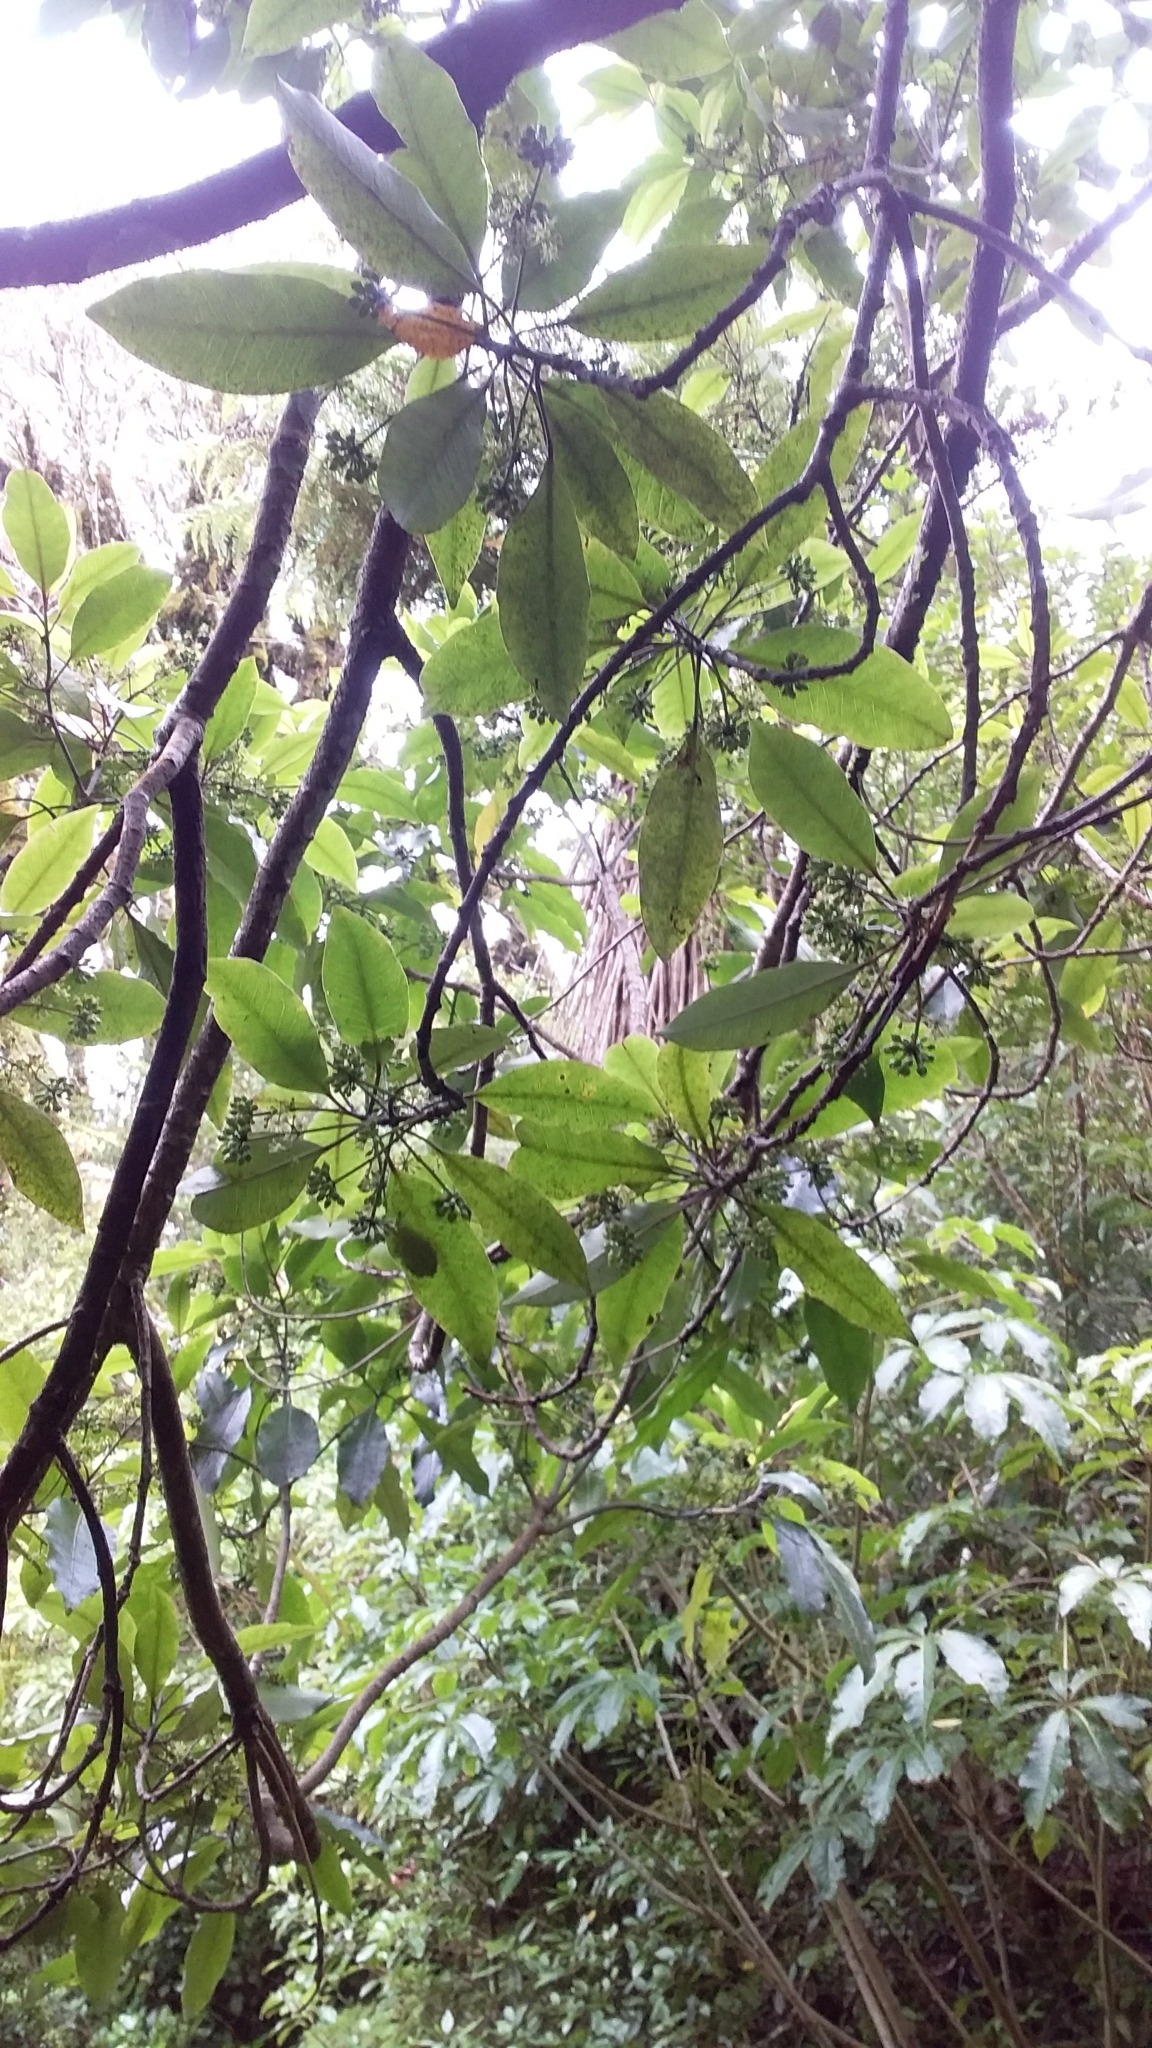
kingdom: Plantae
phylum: Tracheophyta
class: Magnoliopsida
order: Apiales
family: Araliaceae
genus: Raukaua
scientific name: Raukaua edgerleyi
